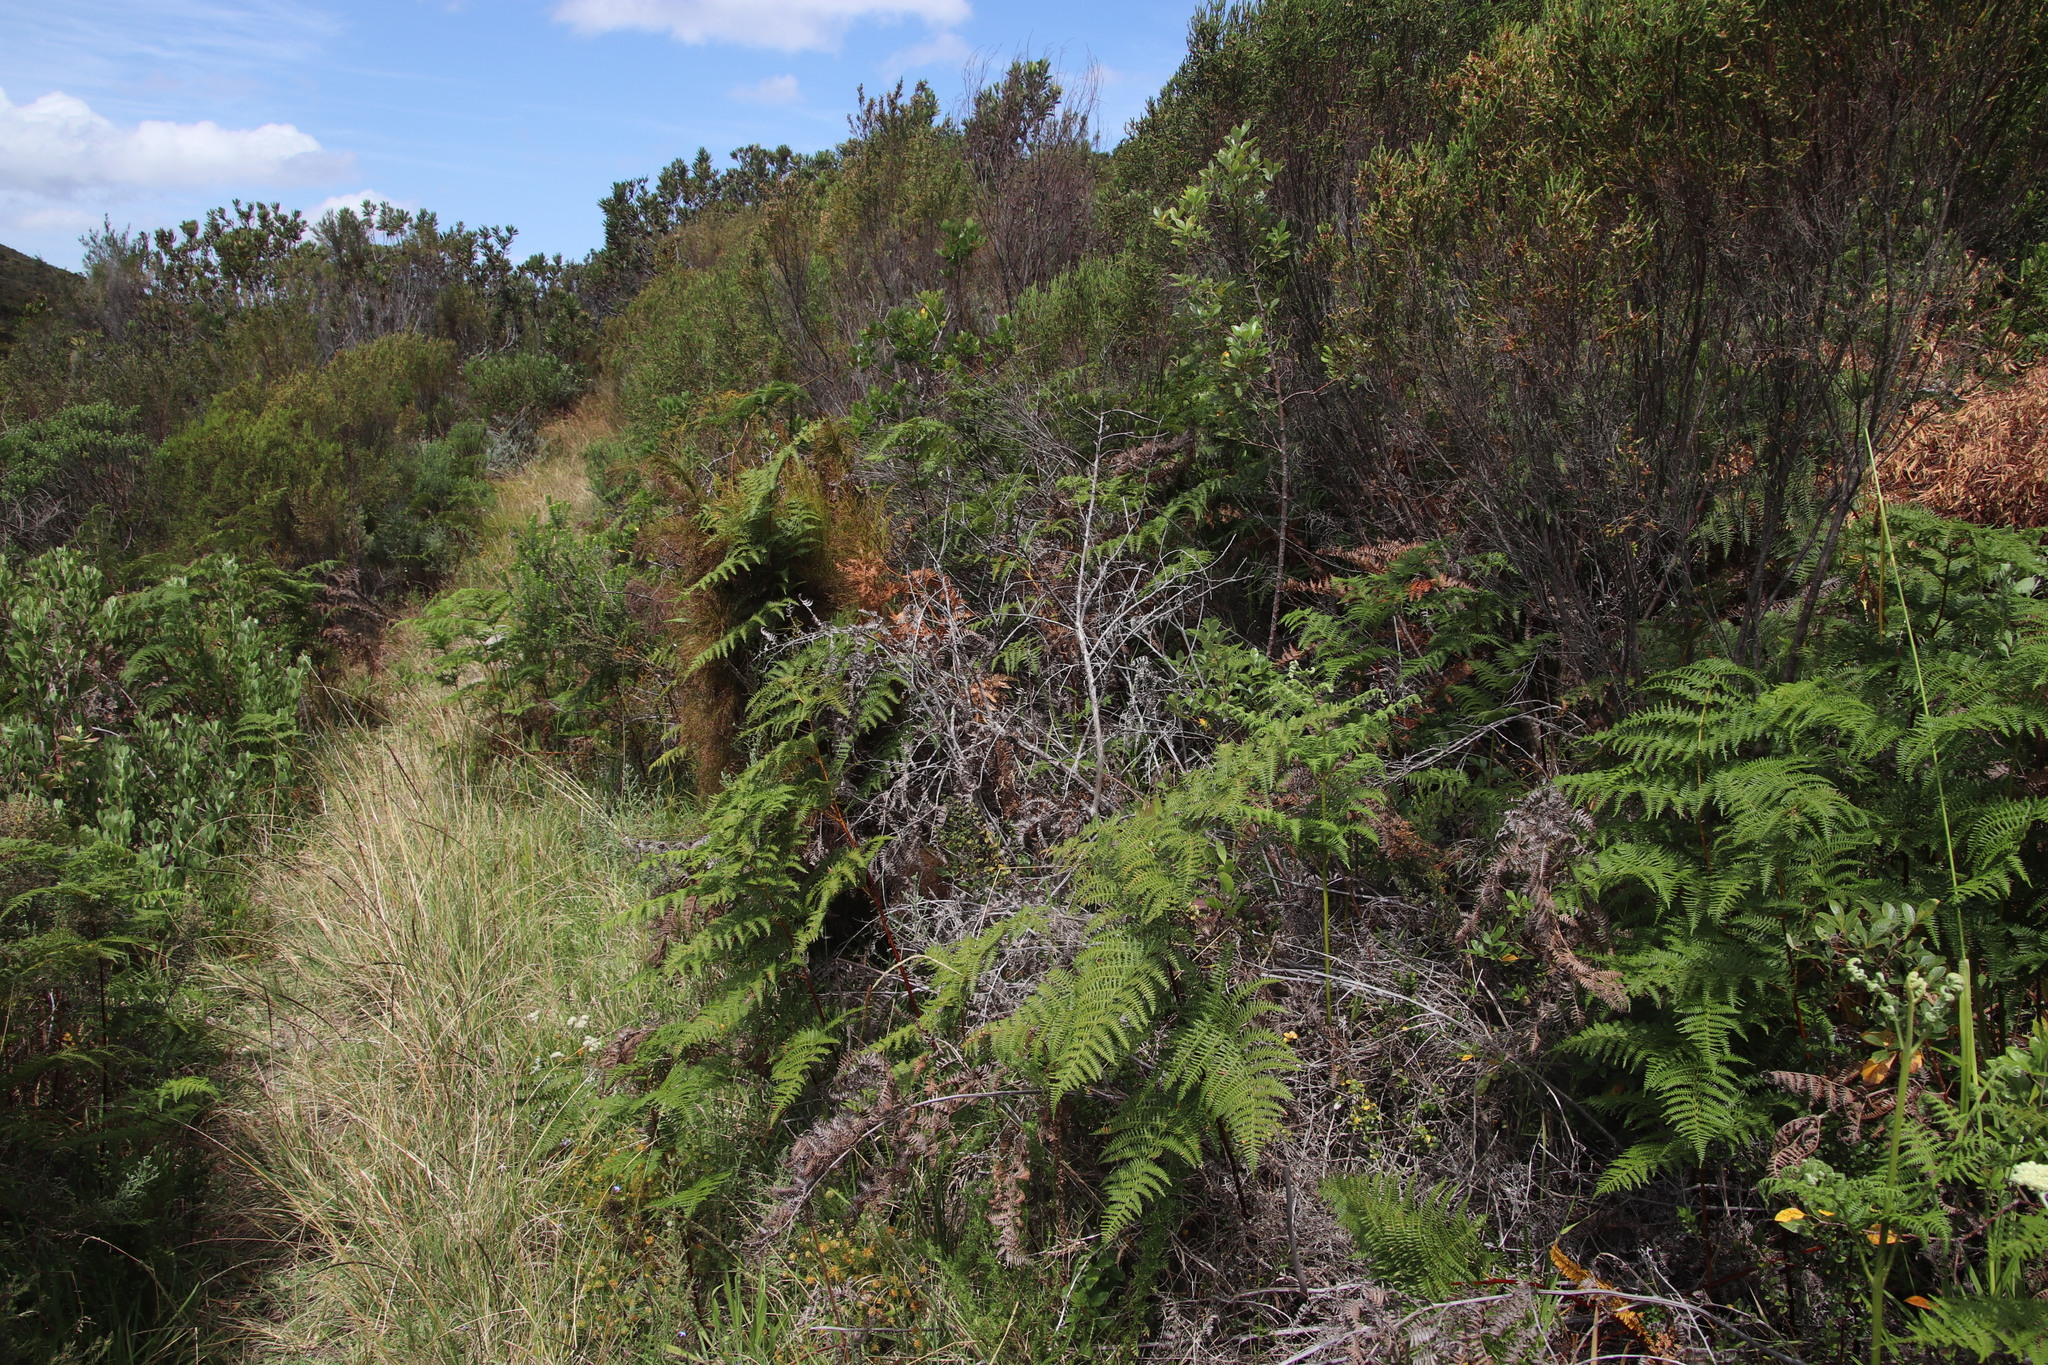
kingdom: Plantae
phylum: Tracheophyta
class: Polypodiopsida
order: Polypodiales
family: Dennstaedtiaceae
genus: Pteridium
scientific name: Pteridium aquilinum
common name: Bracken
